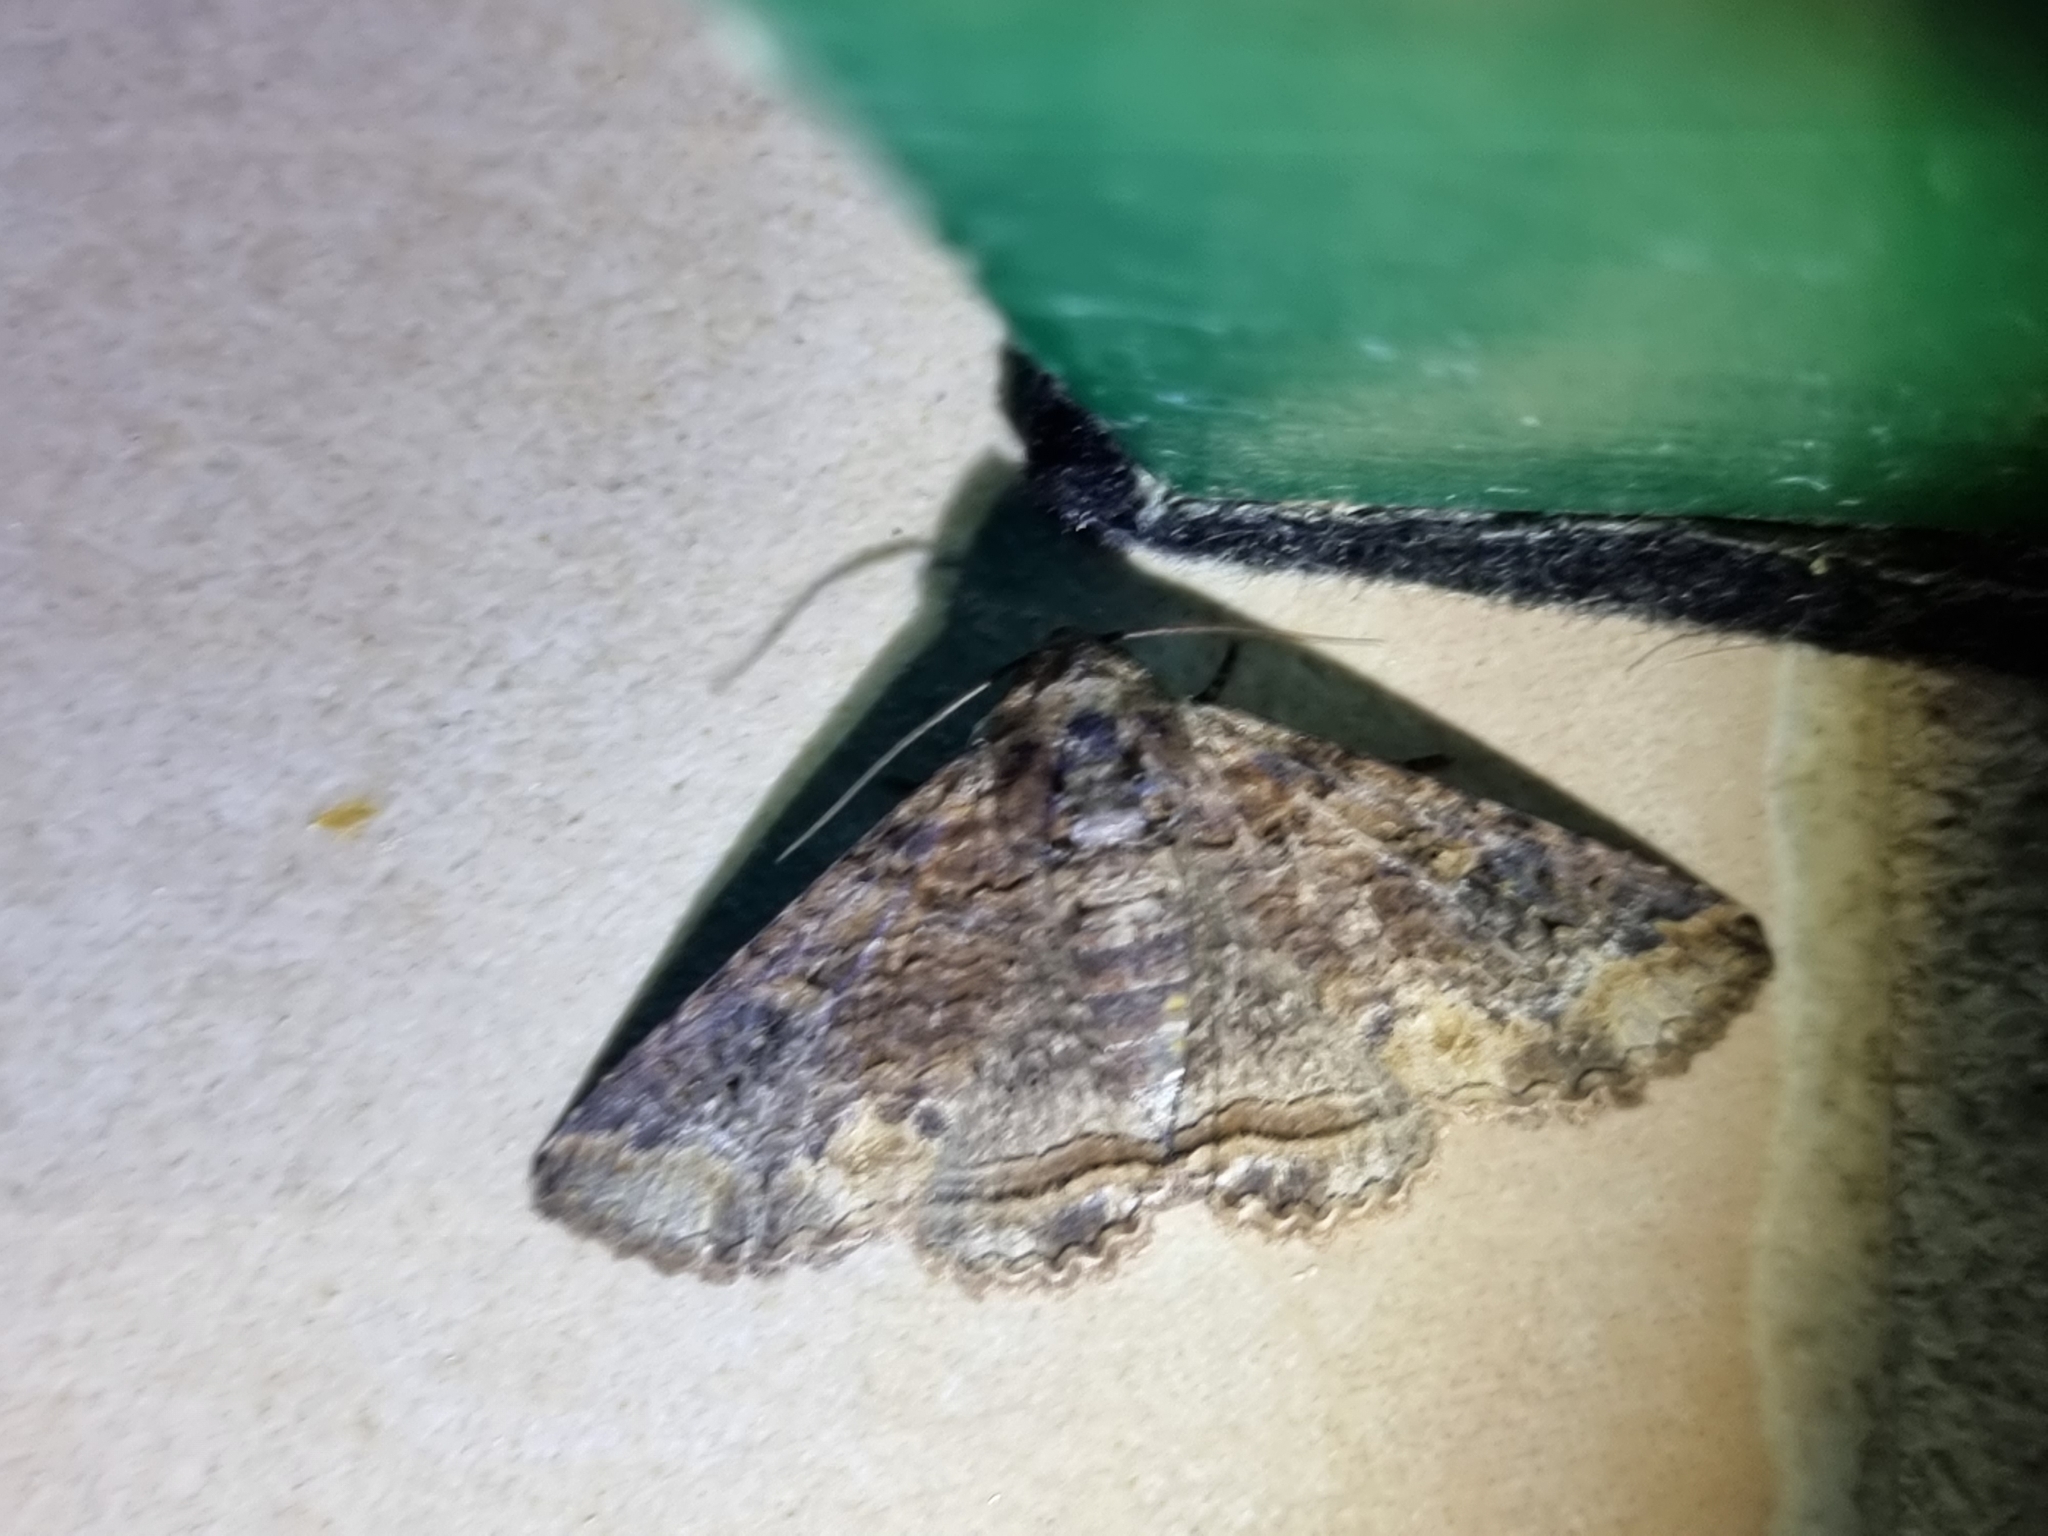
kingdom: Animalia
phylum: Arthropoda
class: Insecta
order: Lepidoptera
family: Erebidae
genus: Pericyma
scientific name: Pericyma cruegeri
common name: Poinciana looper
